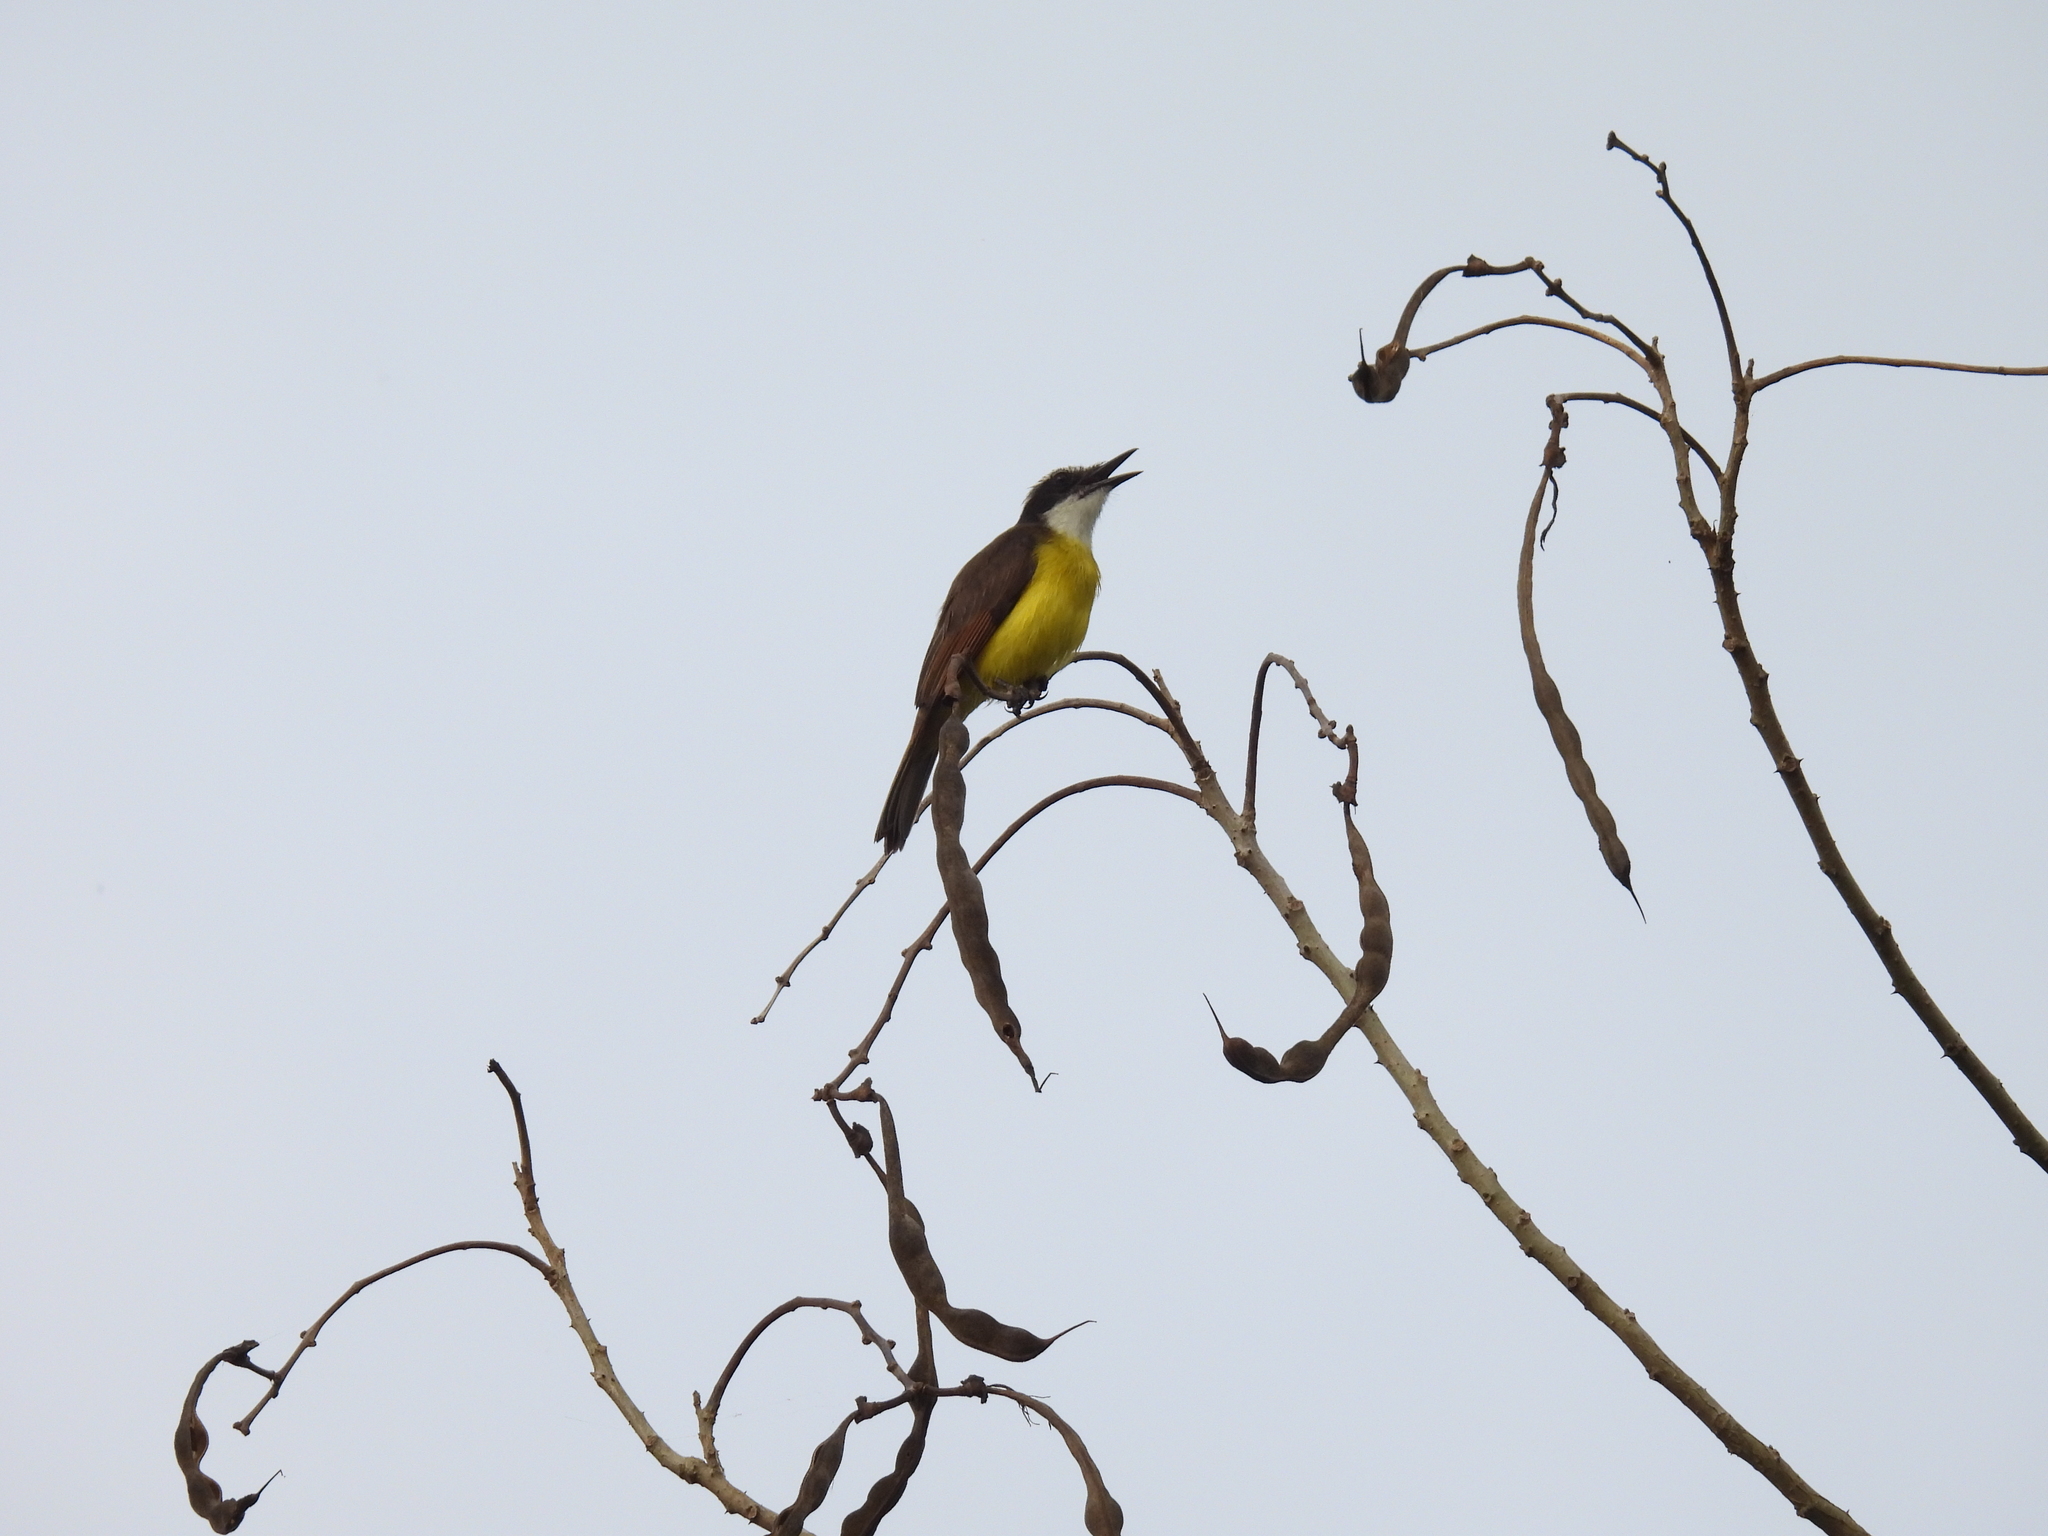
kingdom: Animalia
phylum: Chordata
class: Aves
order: Passeriformes
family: Tyrannidae
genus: Pitangus
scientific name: Pitangus lictor
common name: Lesser kiskadee
